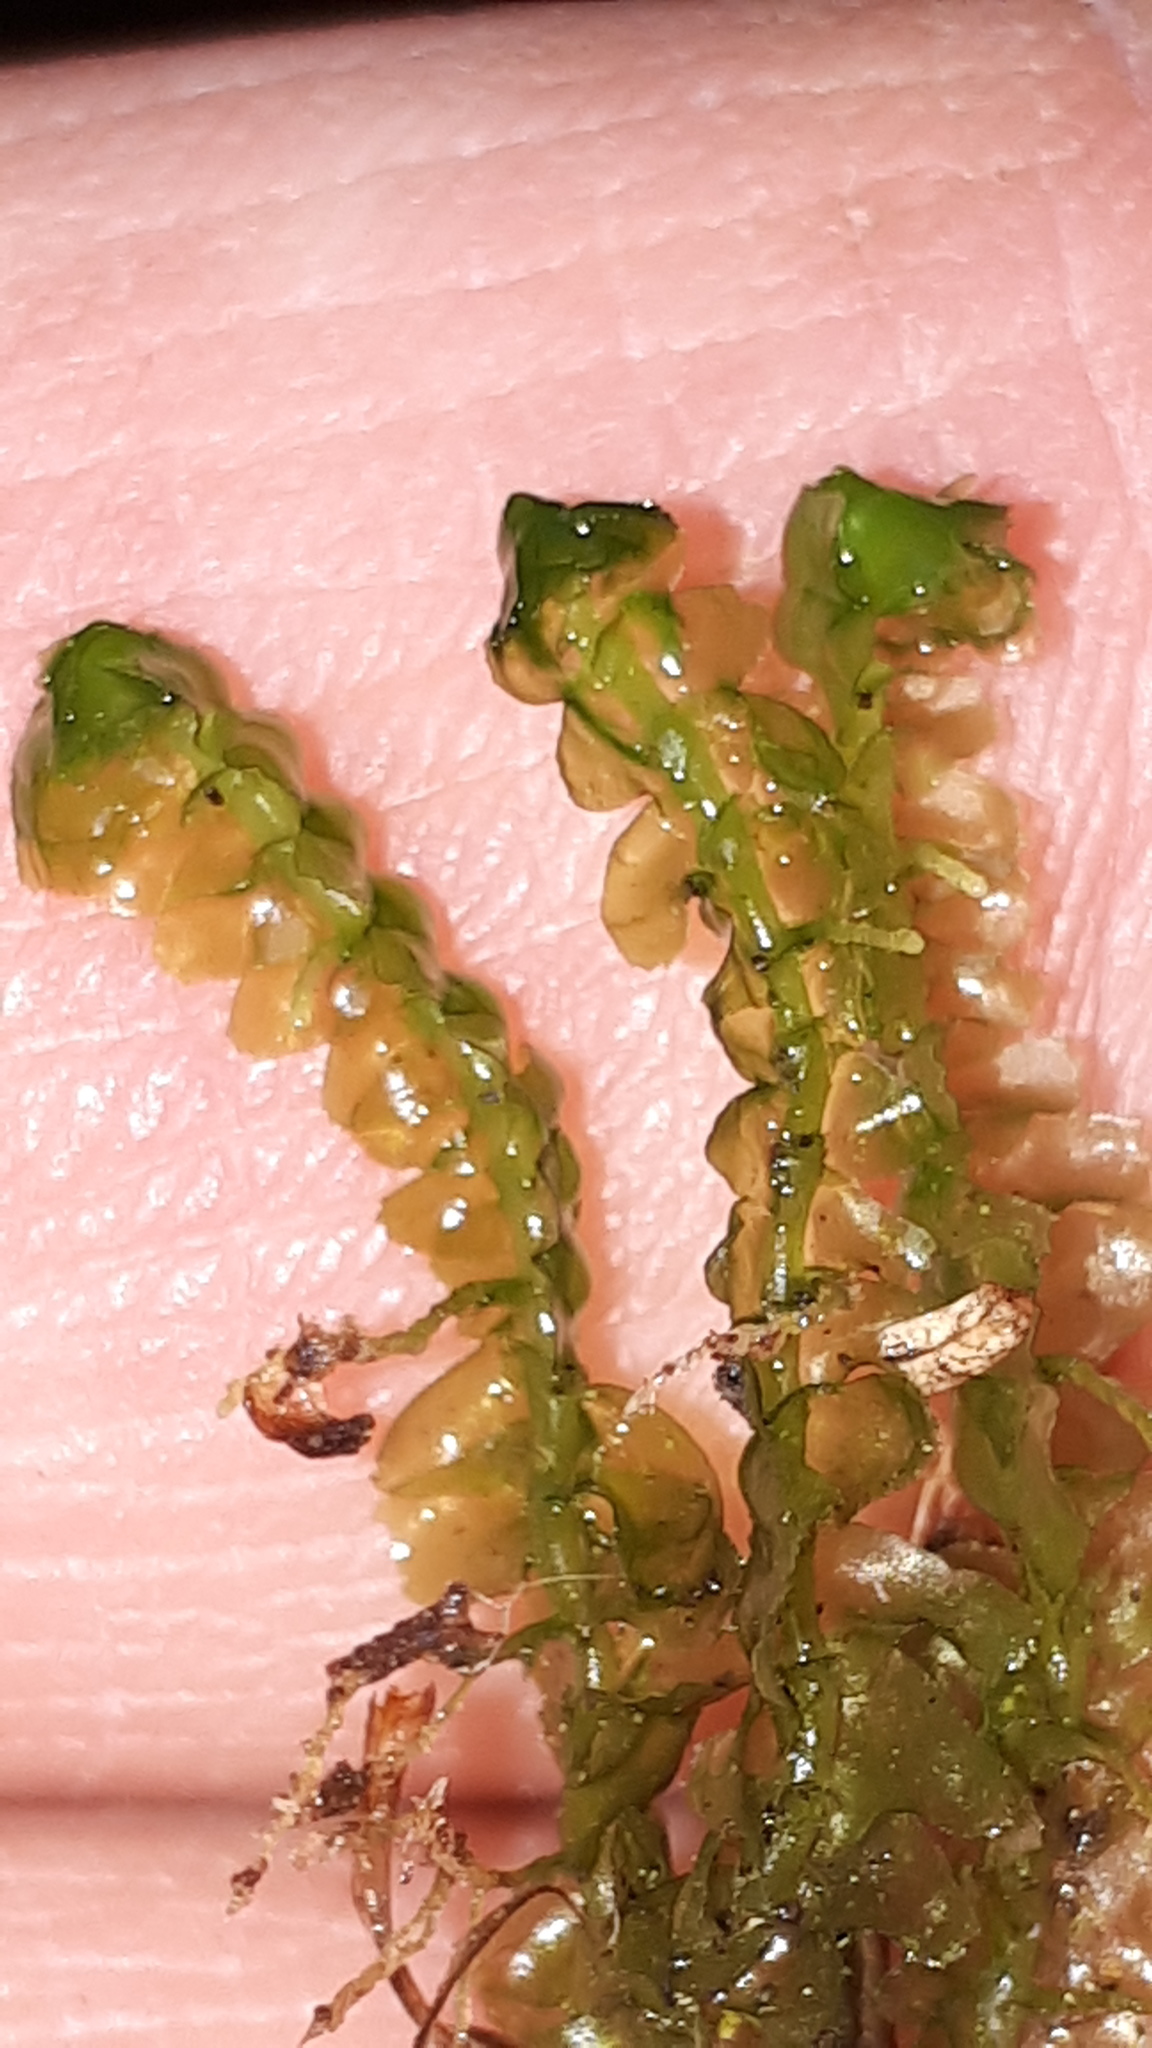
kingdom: Plantae
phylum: Marchantiophyta
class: Jungermanniopsida
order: Jungermanniales
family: Lepidoziaceae
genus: Bazzania
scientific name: Bazzania trilobata
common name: Three-lobed whipwort
